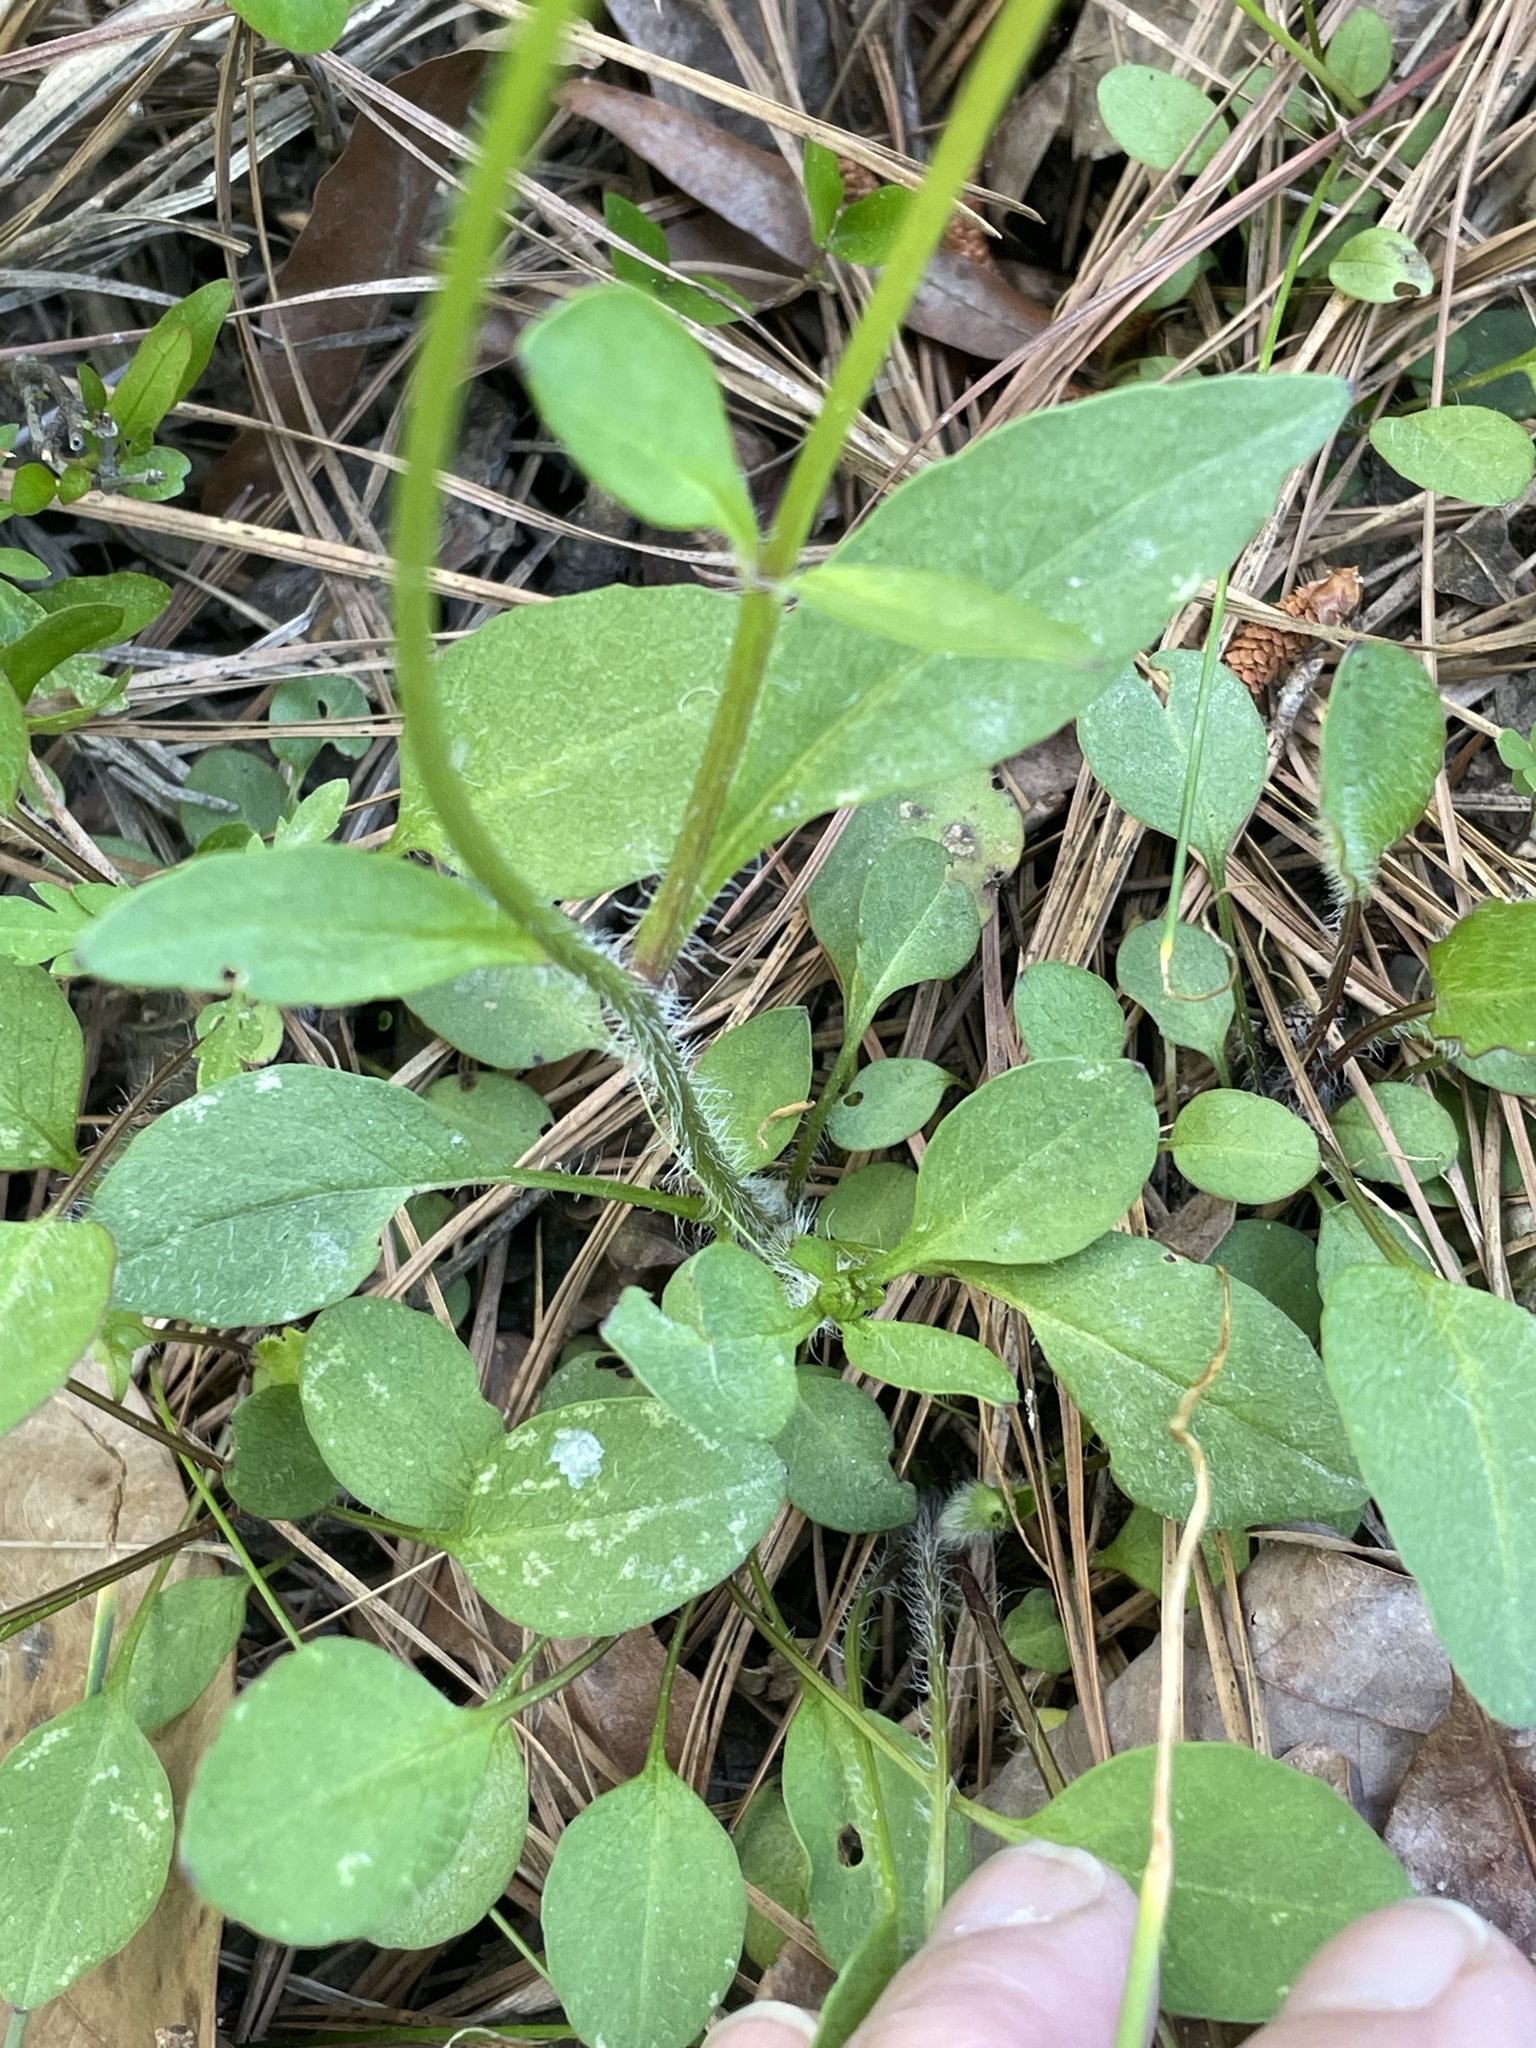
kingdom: Plantae
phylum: Tracheophyta
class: Magnoliopsida
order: Asterales
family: Asteraceae
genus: Coreopsis
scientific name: Coreopsis auriculata
